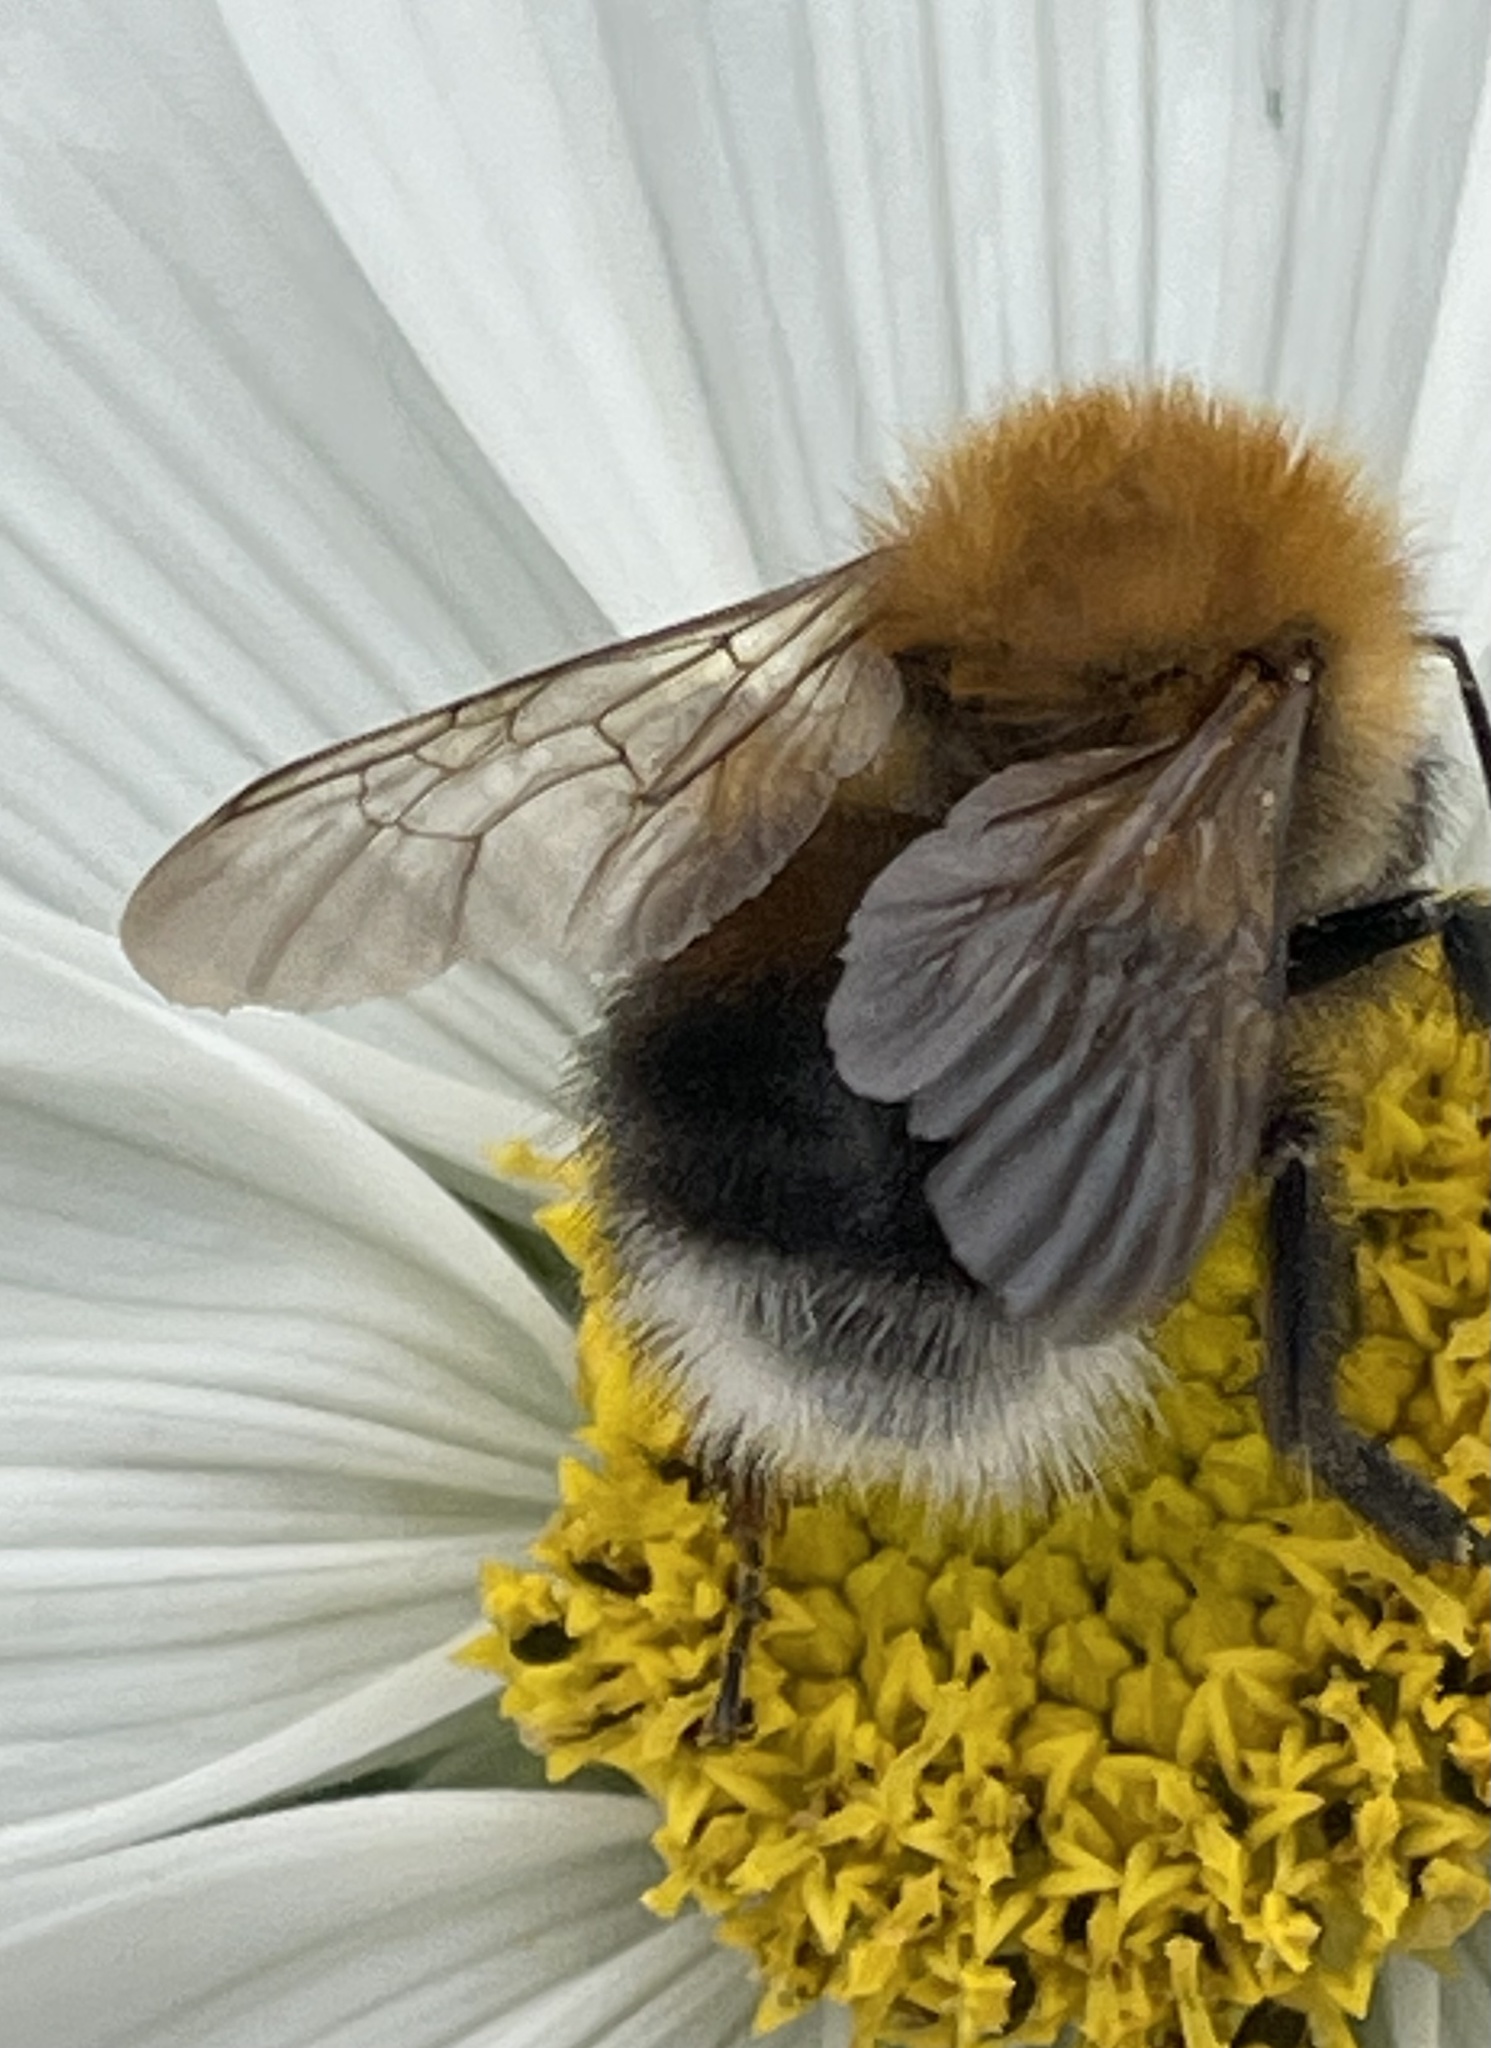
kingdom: Animalia
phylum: Arthropoda
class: Insecta
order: Hymenoptera
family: Apidae
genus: Bombus
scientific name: Bombus hypnorum
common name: New garden bumblebee
